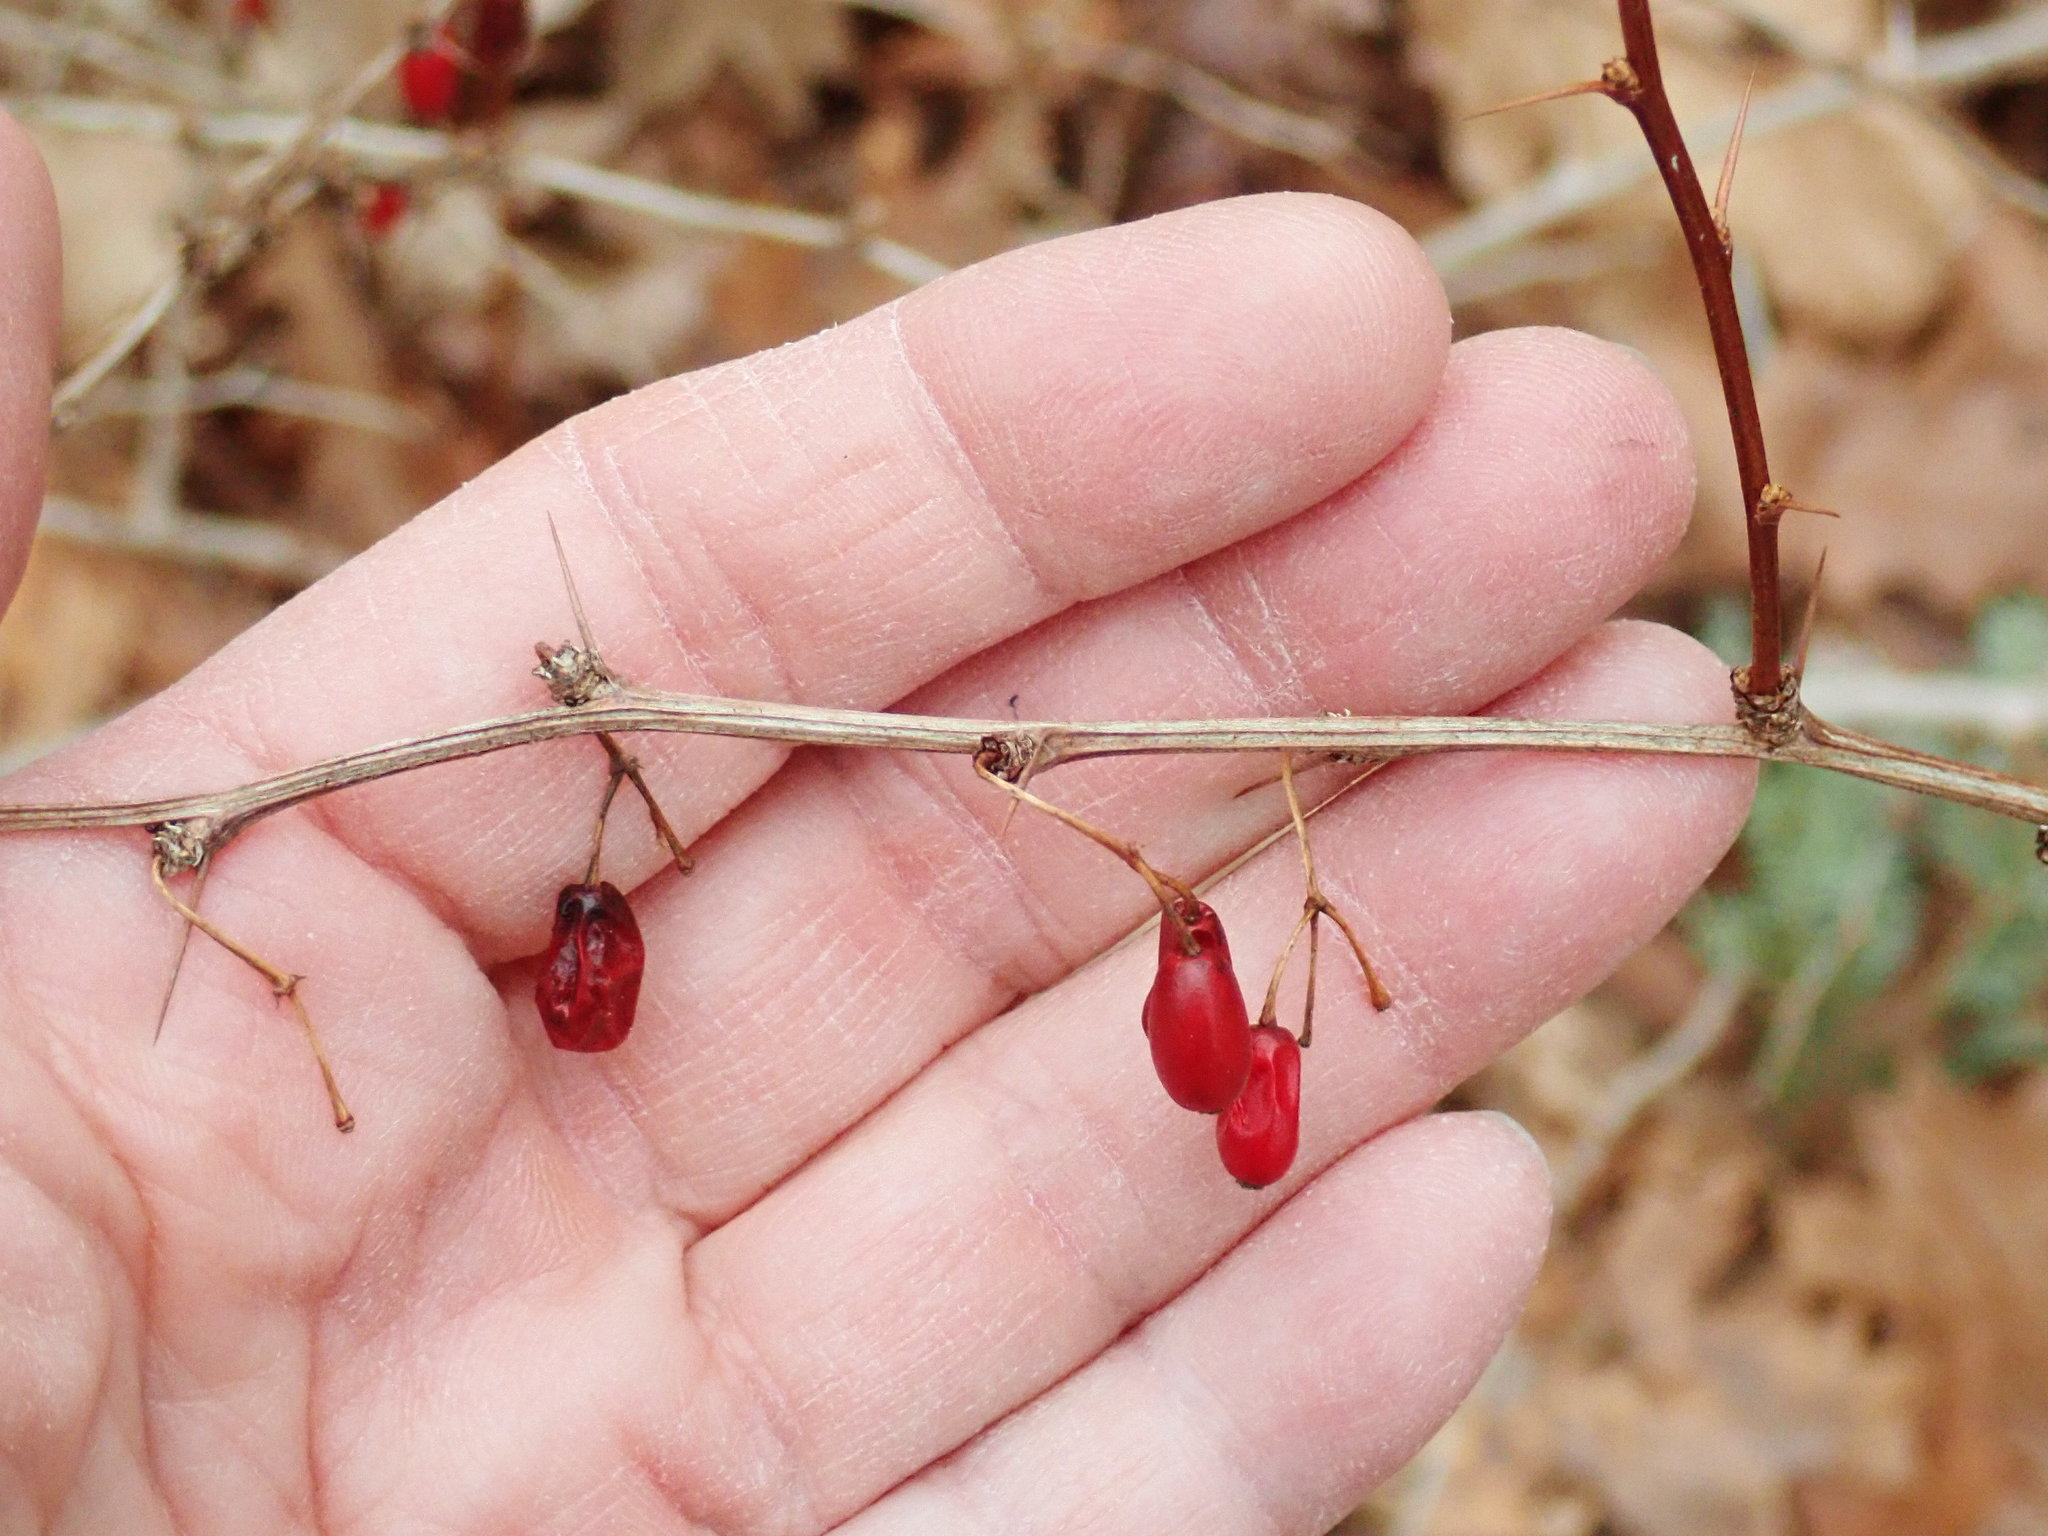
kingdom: Plantae
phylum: Tracheophyta
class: Magnoliopsida
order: Ranunculales
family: Berberidaceae
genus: Berberis
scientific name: Berberis thunbergii
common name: Japanese barberry
